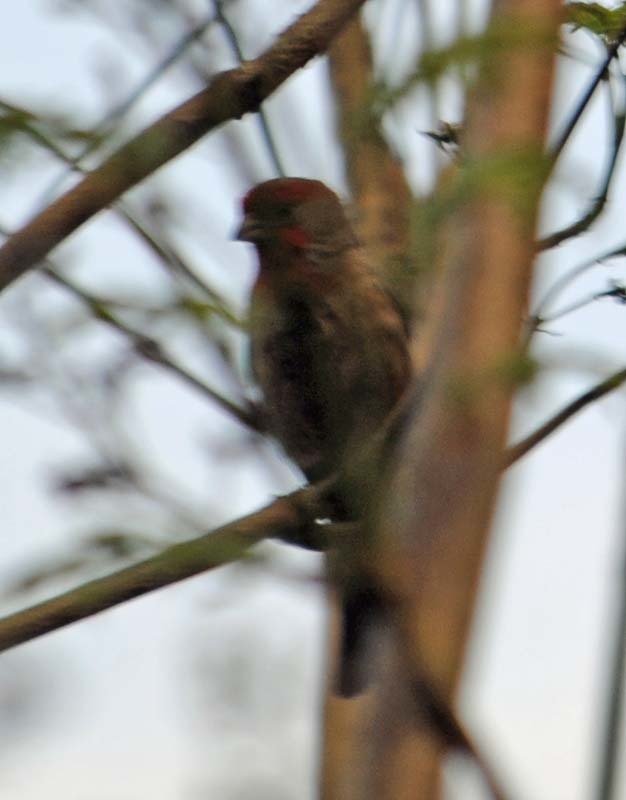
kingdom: Animalia
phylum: Chordata
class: Aves
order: Passeriformes
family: Fringillidae
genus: Haemorhous
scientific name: Haemorhous mexicanus
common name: House finch
